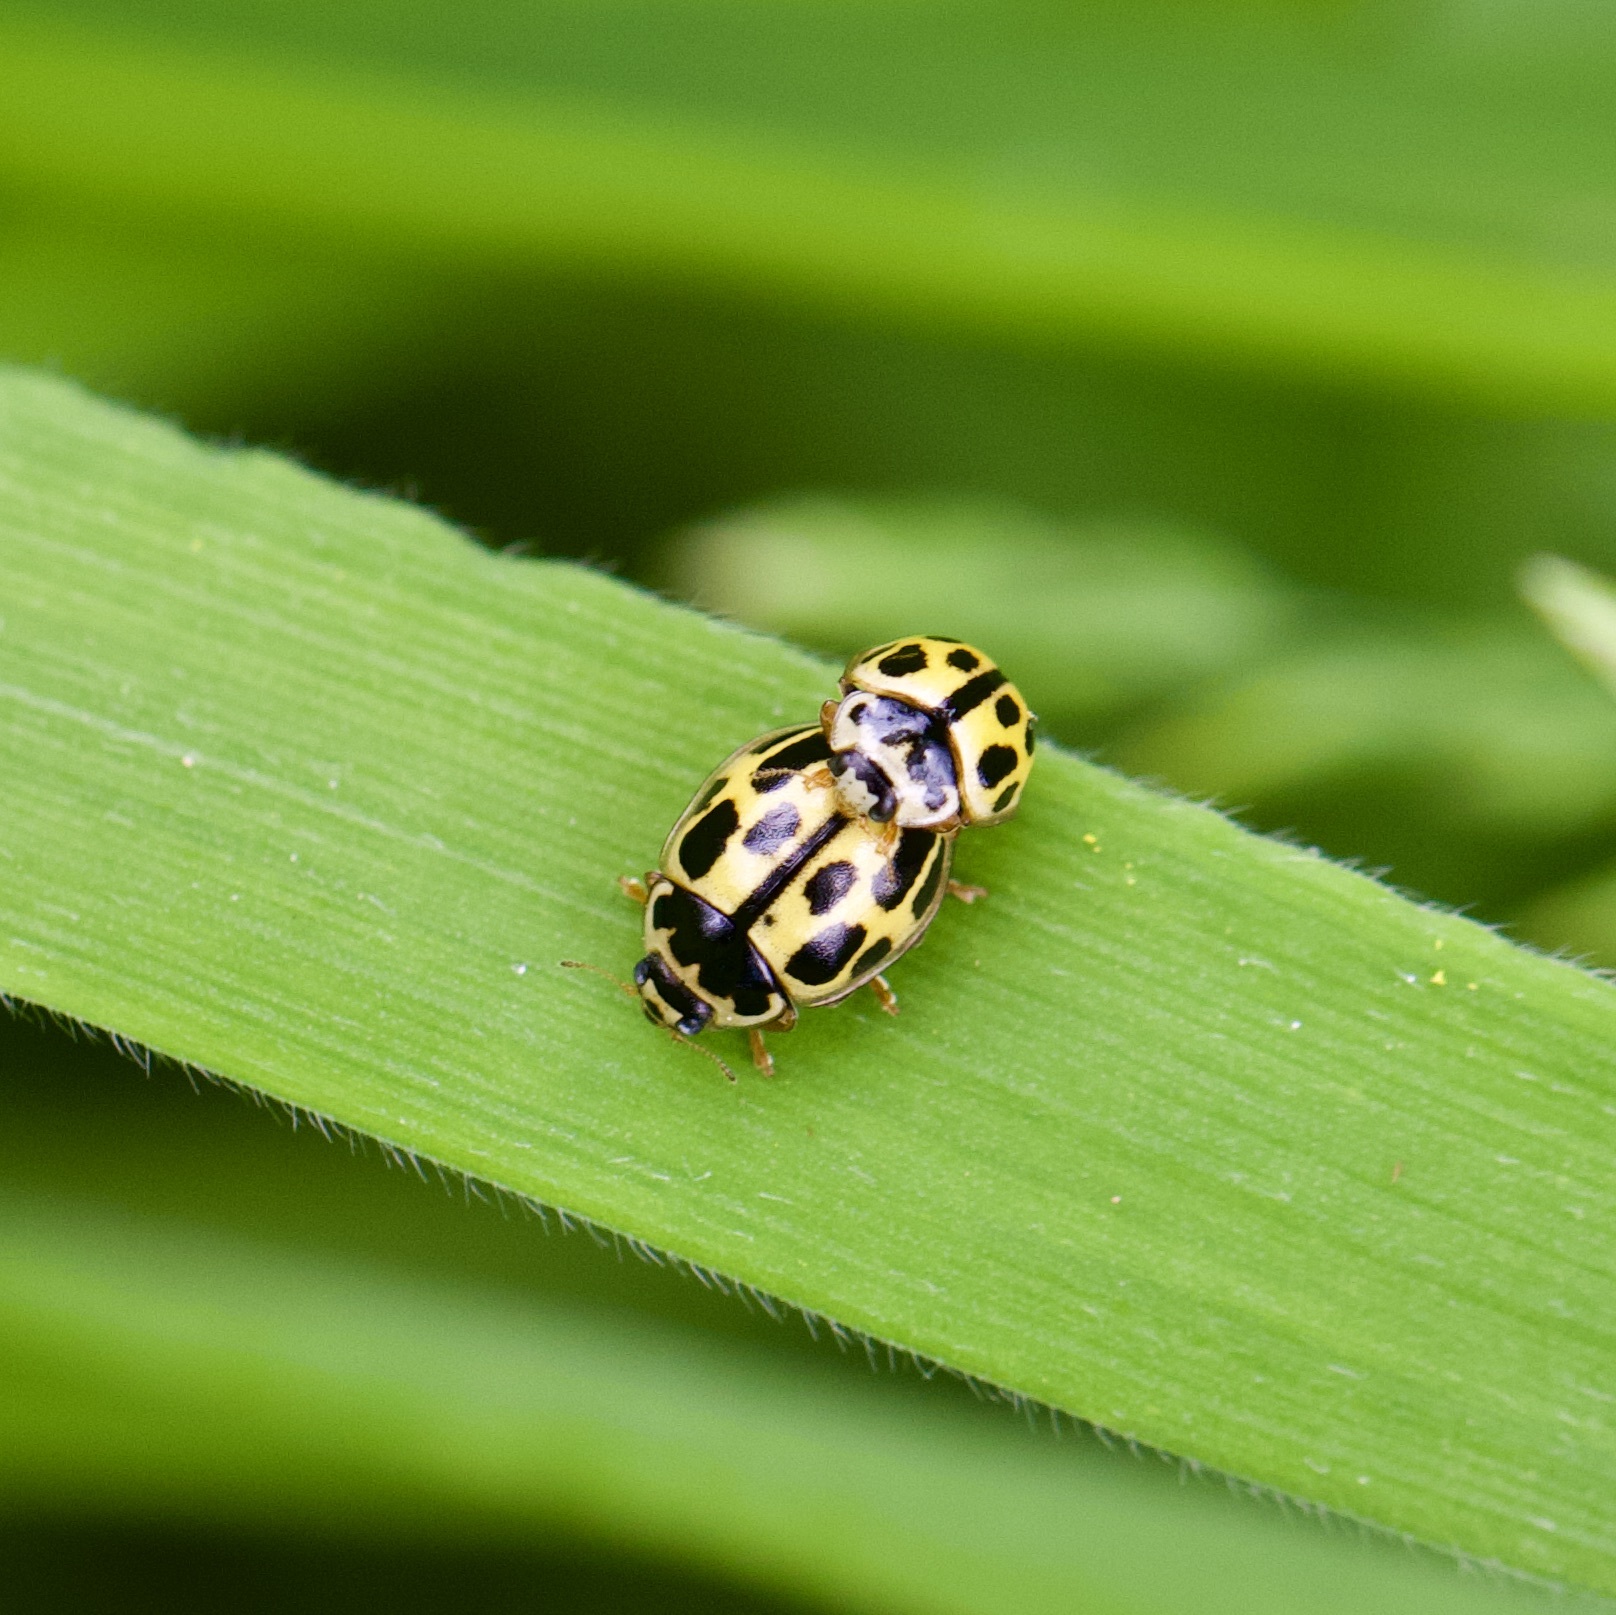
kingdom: Animalia
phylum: Arthropoda
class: Insecta
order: Coleoptera
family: Coccinellidae
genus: Propylaea
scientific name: Propylaea quatuordecimpunctata
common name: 14-spotted ladybird beetle
